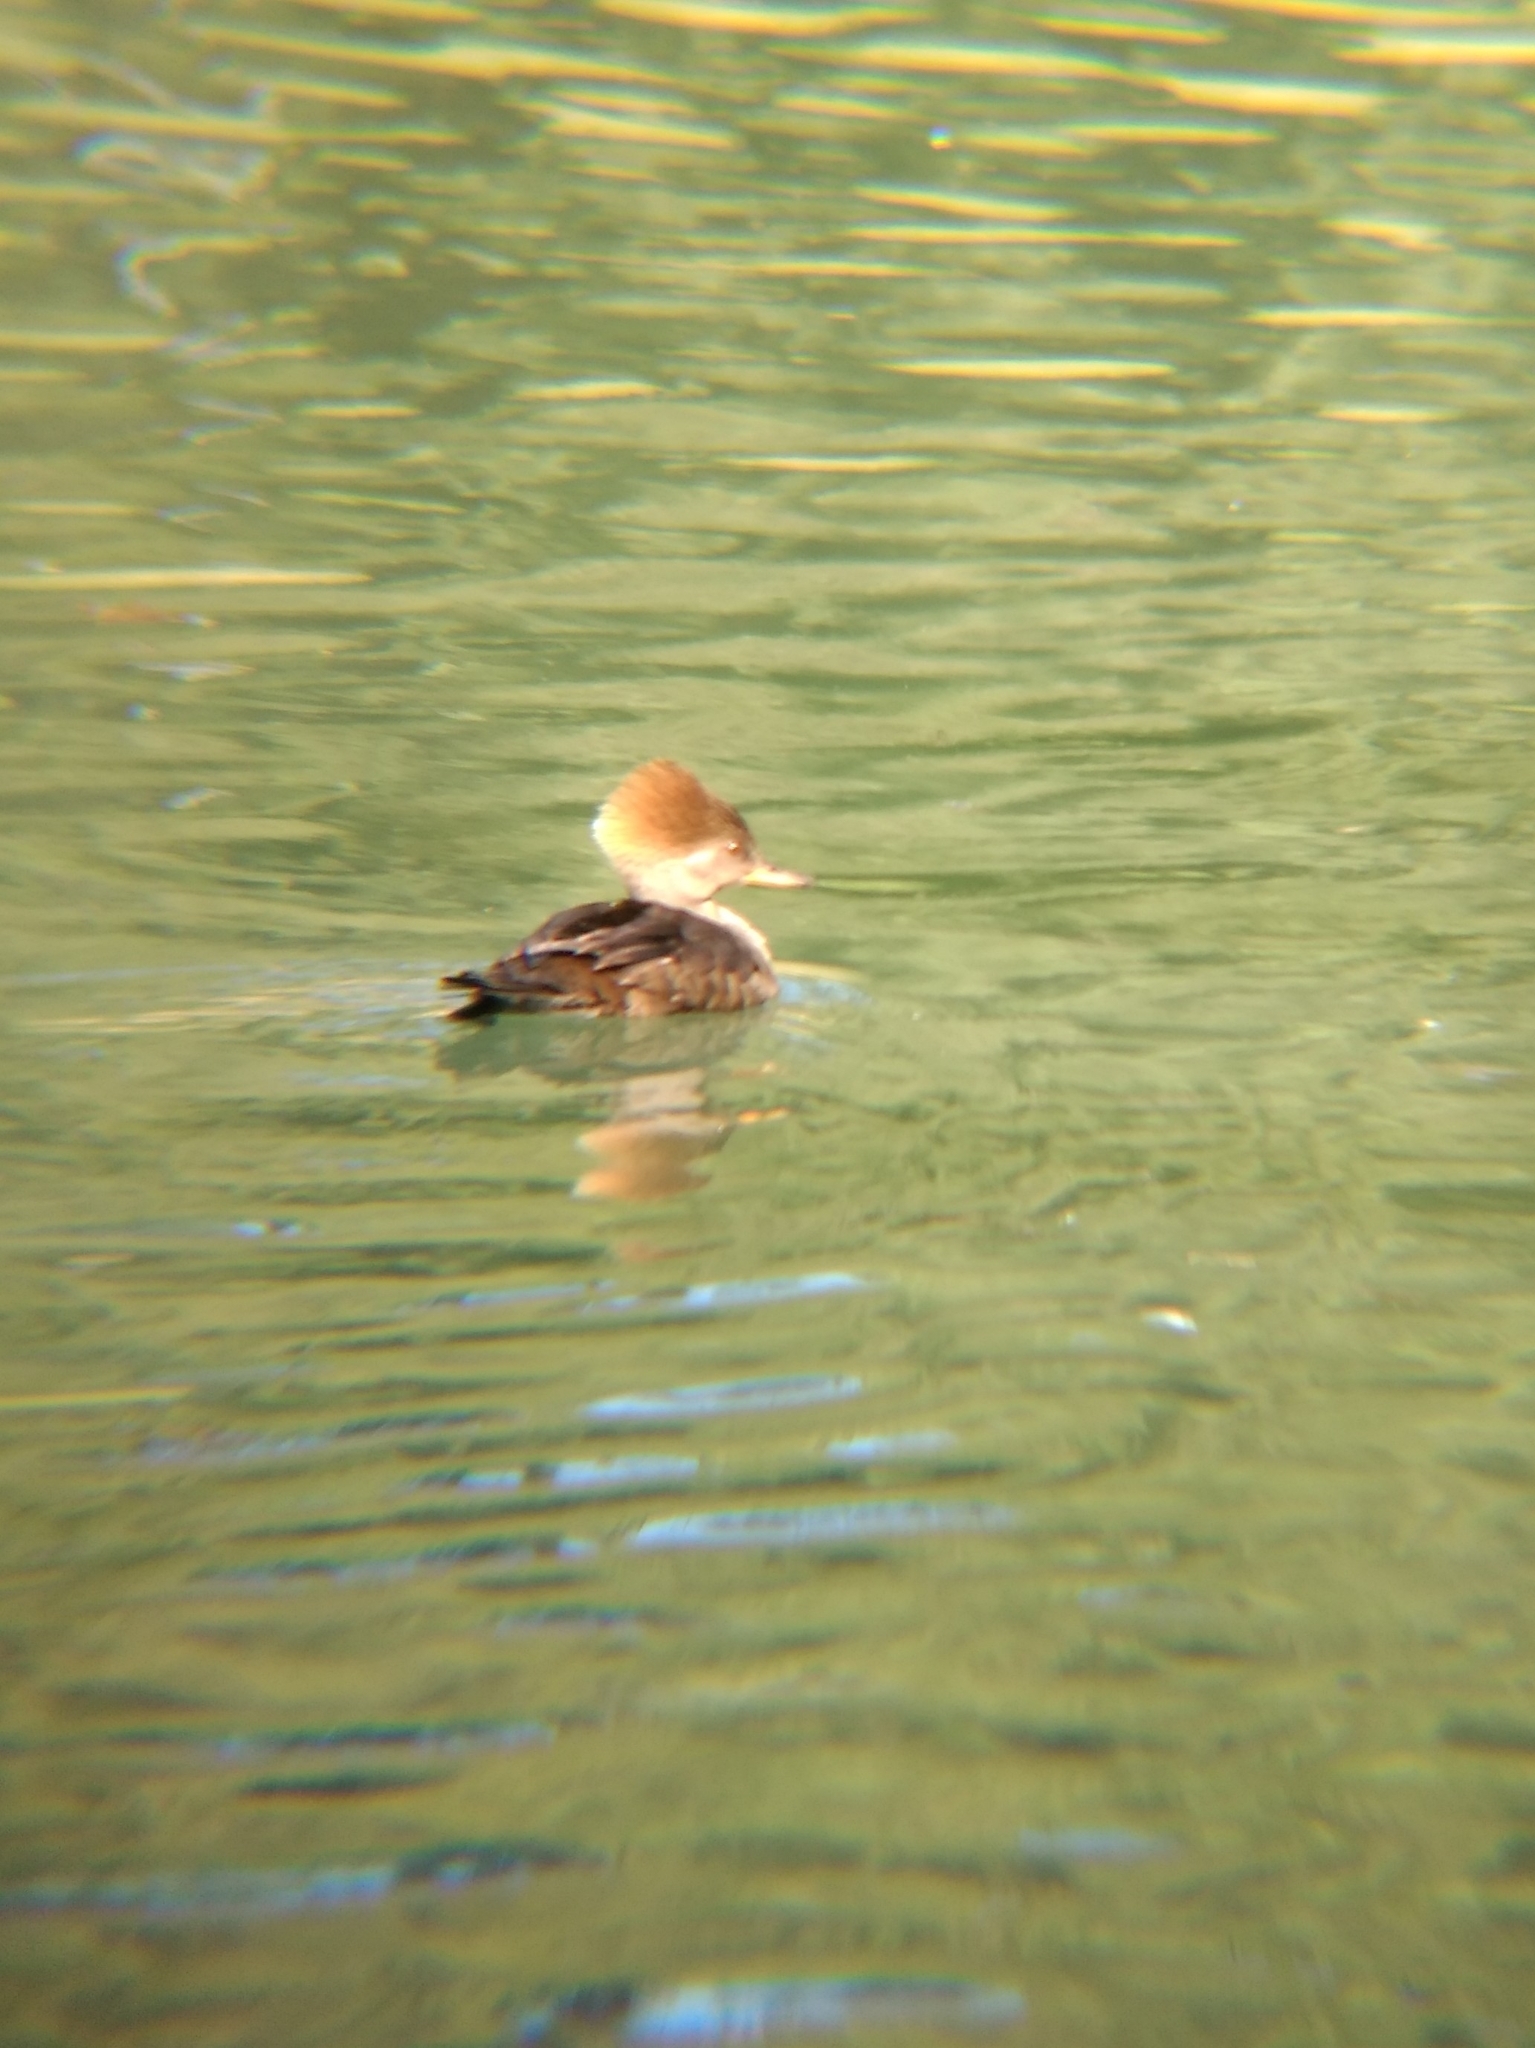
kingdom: Animalia
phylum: Chordata
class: Aves
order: Anseriformes
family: Anatidae
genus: Lophodytes
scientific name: Lophodytes cucullatus
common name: Hooded merganser
